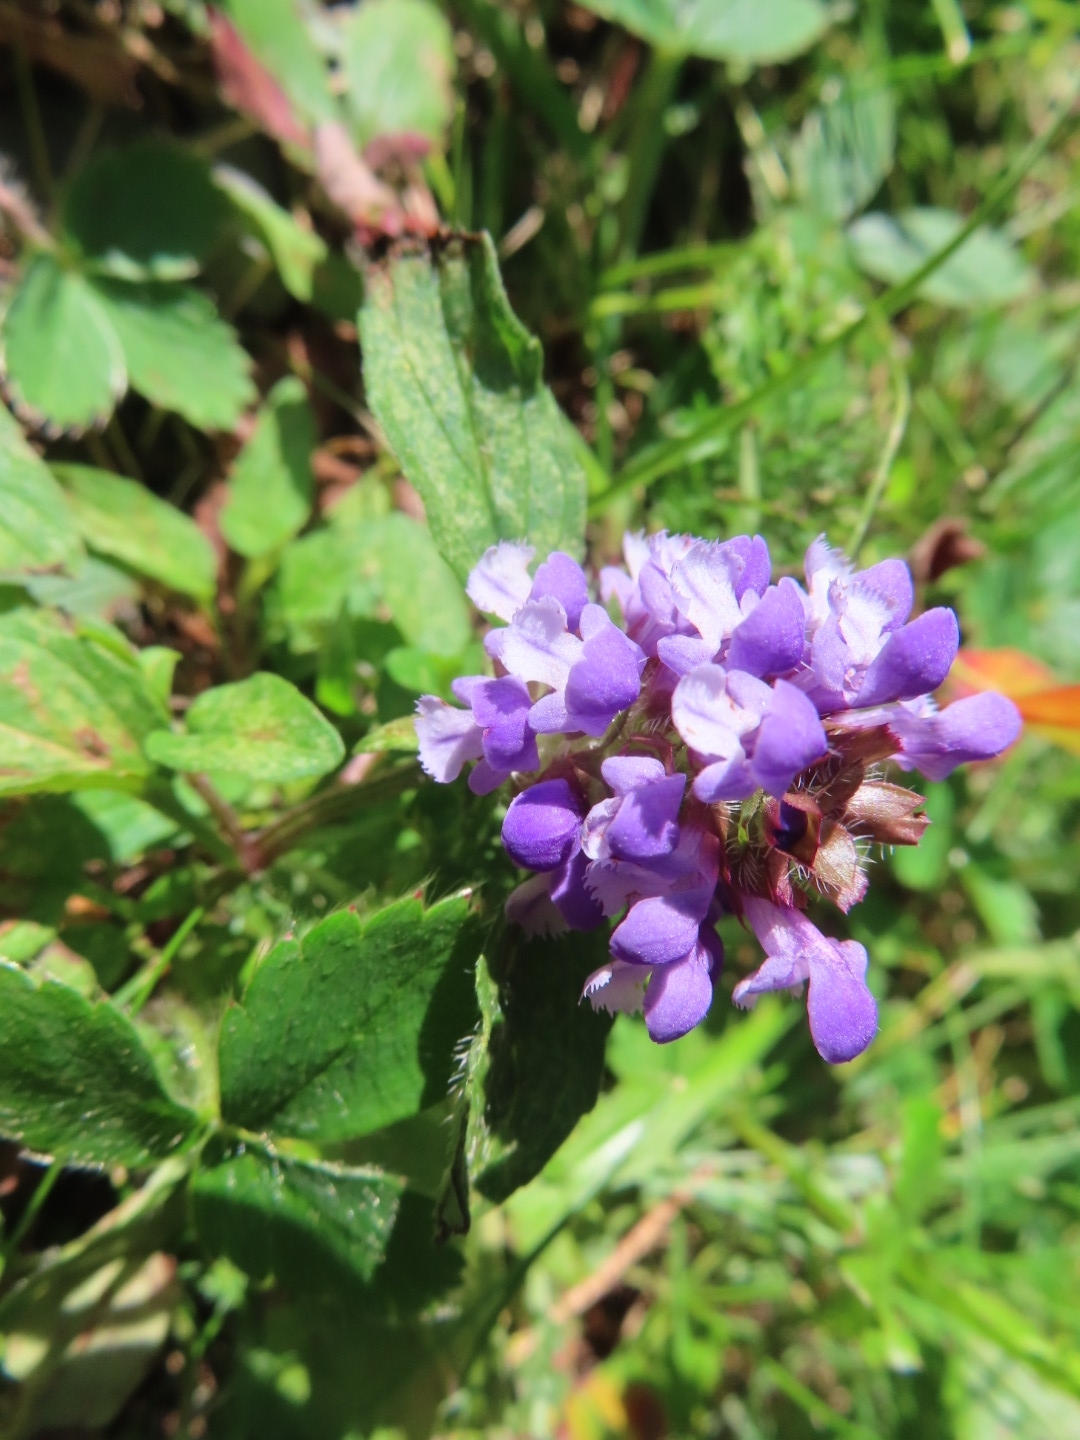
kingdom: Plantae
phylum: Tracheophyta
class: Magnoliopsida
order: Lamiales
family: Lamiaceae
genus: Prunella
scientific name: Prunella vulgaris
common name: Heal-all
